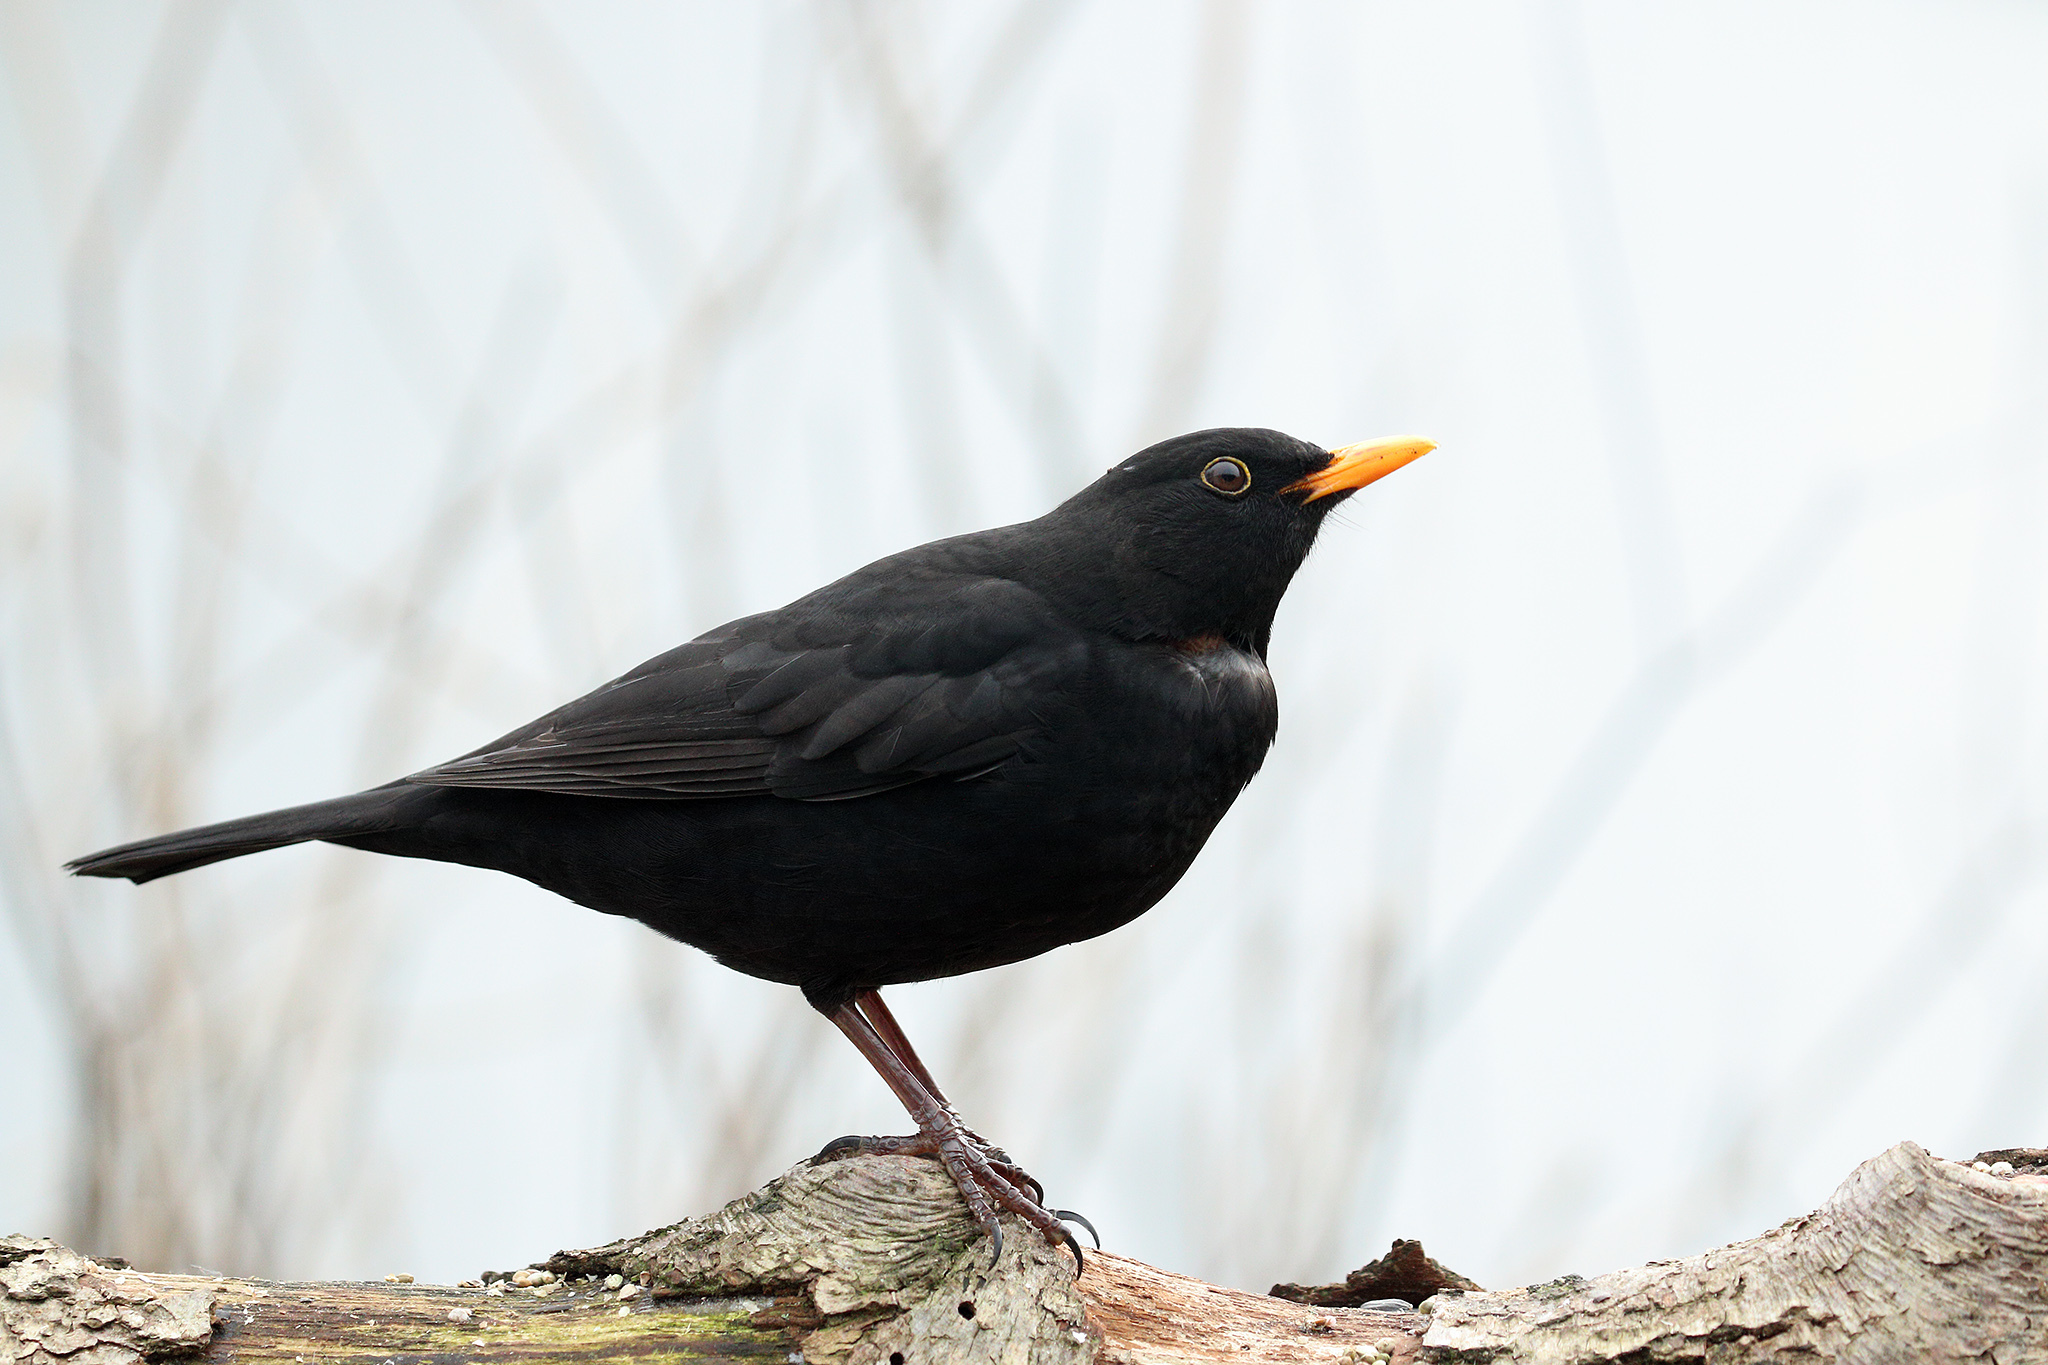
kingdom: Animalia
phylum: Chordata
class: Aves
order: Passeriformes
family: Turdidae
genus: Turdus
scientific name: Turdus merula
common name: Common blackbird
